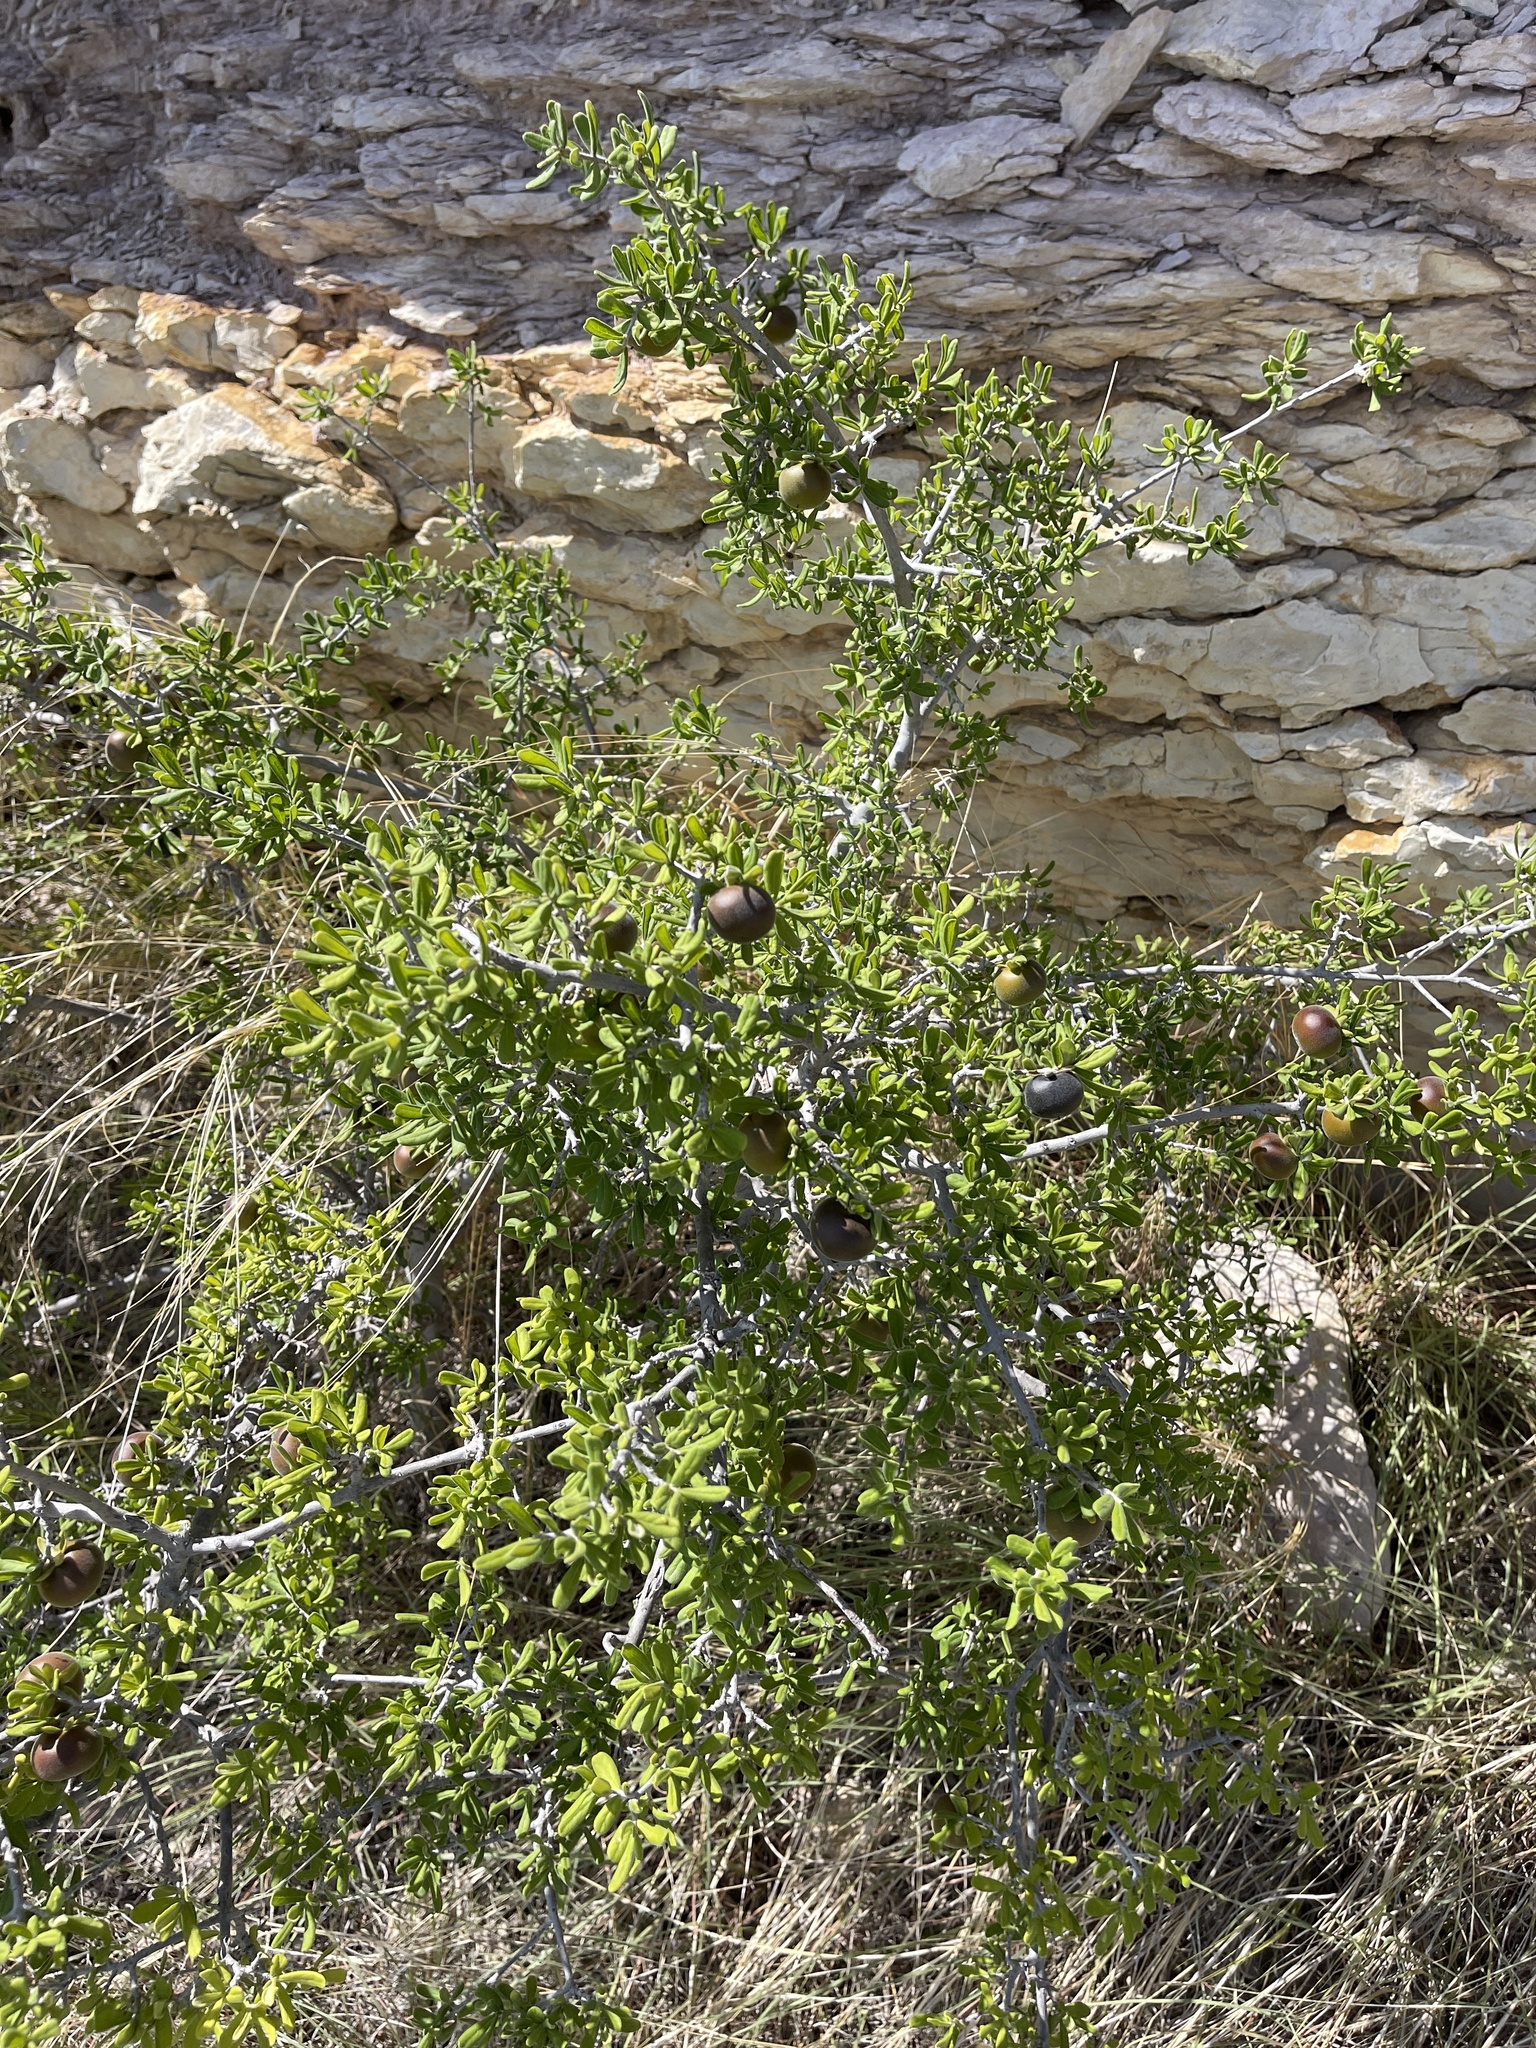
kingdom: Plantae
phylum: Tracheophyta
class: Magnoliopsida
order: Ericales
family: Ebenaceae
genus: Diospyros
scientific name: Diospyros texana
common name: Texas persimmon
